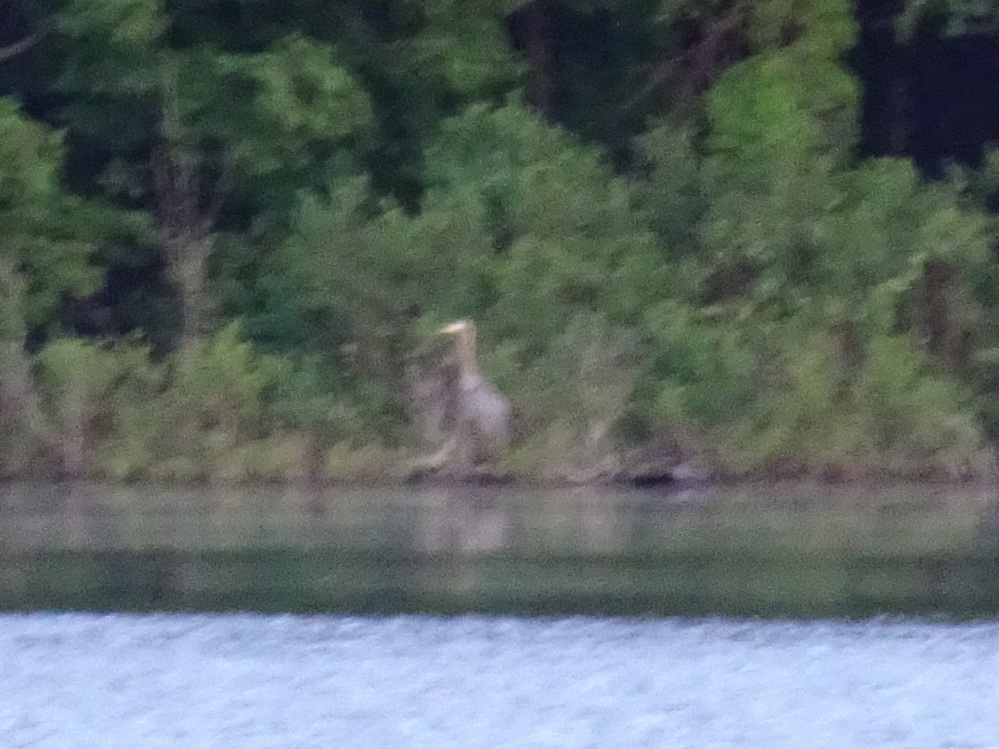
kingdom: Animalia
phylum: Chordata
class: Aves
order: Pelecaniformes
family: Ardeidae
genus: Ardea
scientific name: Ardea herodias
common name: Great blue heron
